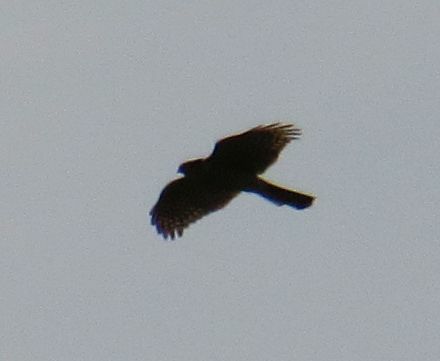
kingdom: Animalia
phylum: Chordata
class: Aves
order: Accipitriformes
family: Accipitridae
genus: Accipiter
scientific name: Accipiter nisus
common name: Eurasian sparrowhawk
